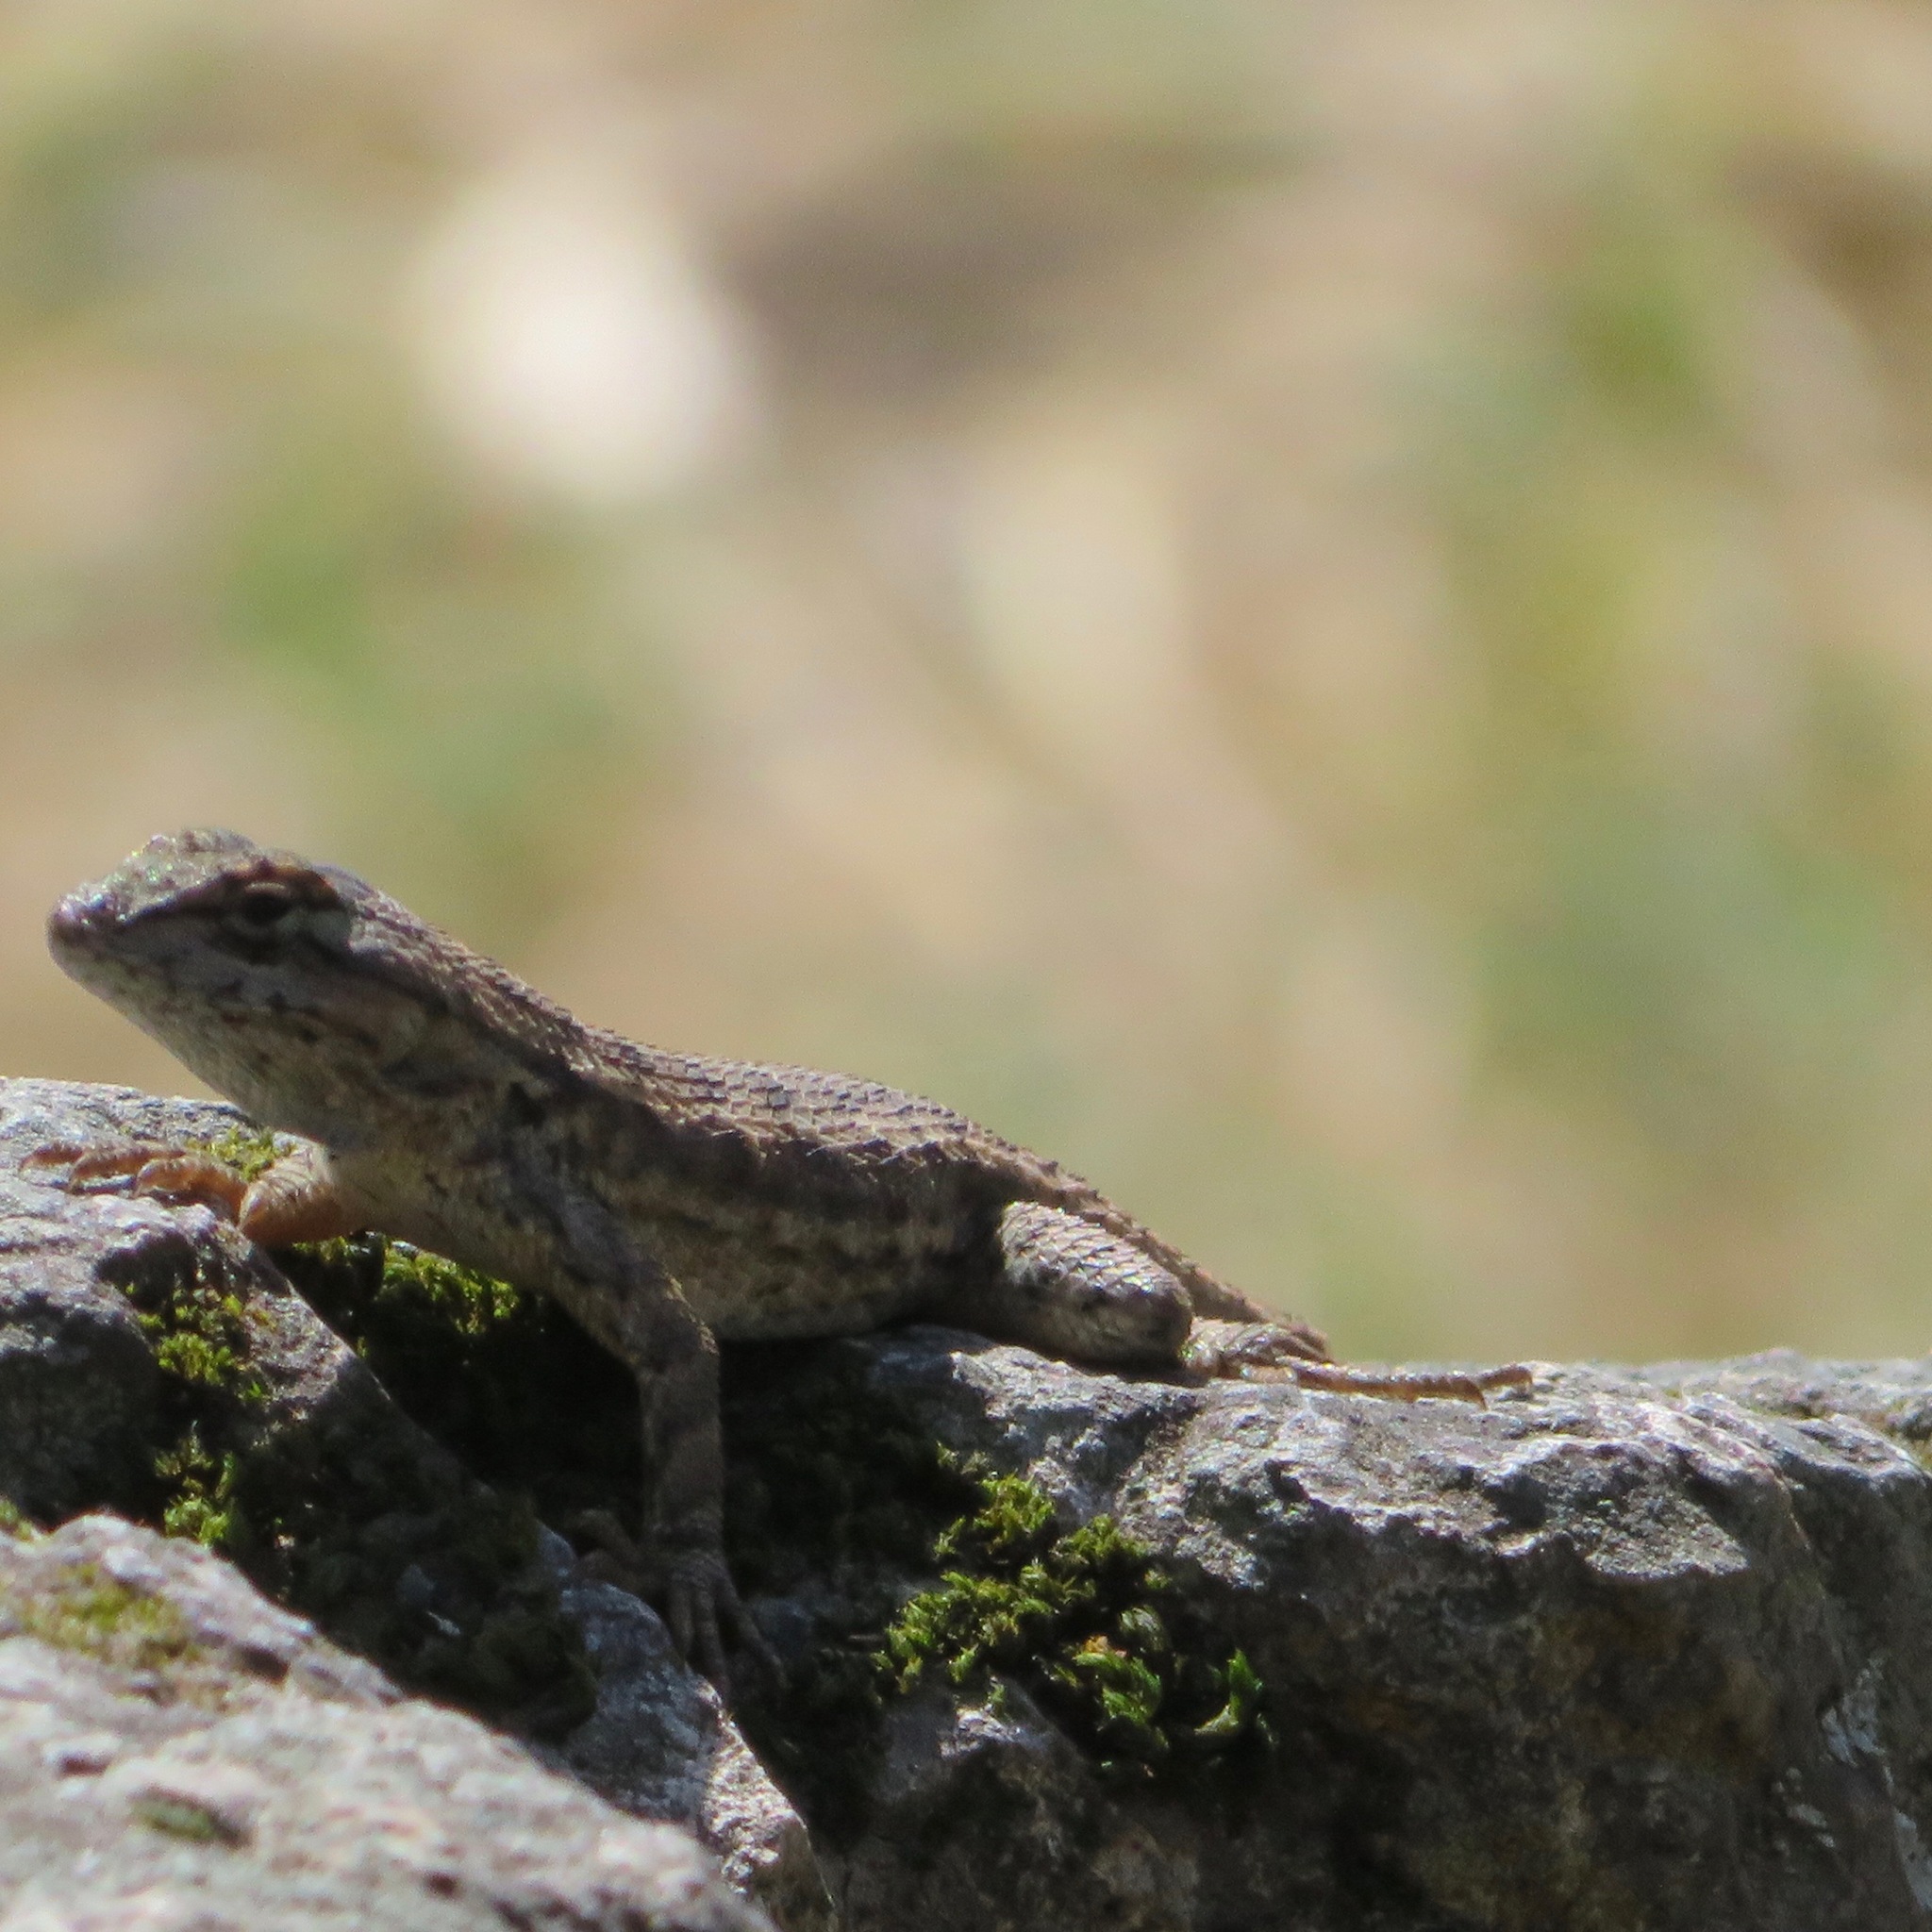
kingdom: Animalia
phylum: Chordata
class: Squamata
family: Phrynosomatidae
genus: Sceloporus
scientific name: Sceloporus occidentalis
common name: Western fence lizard
